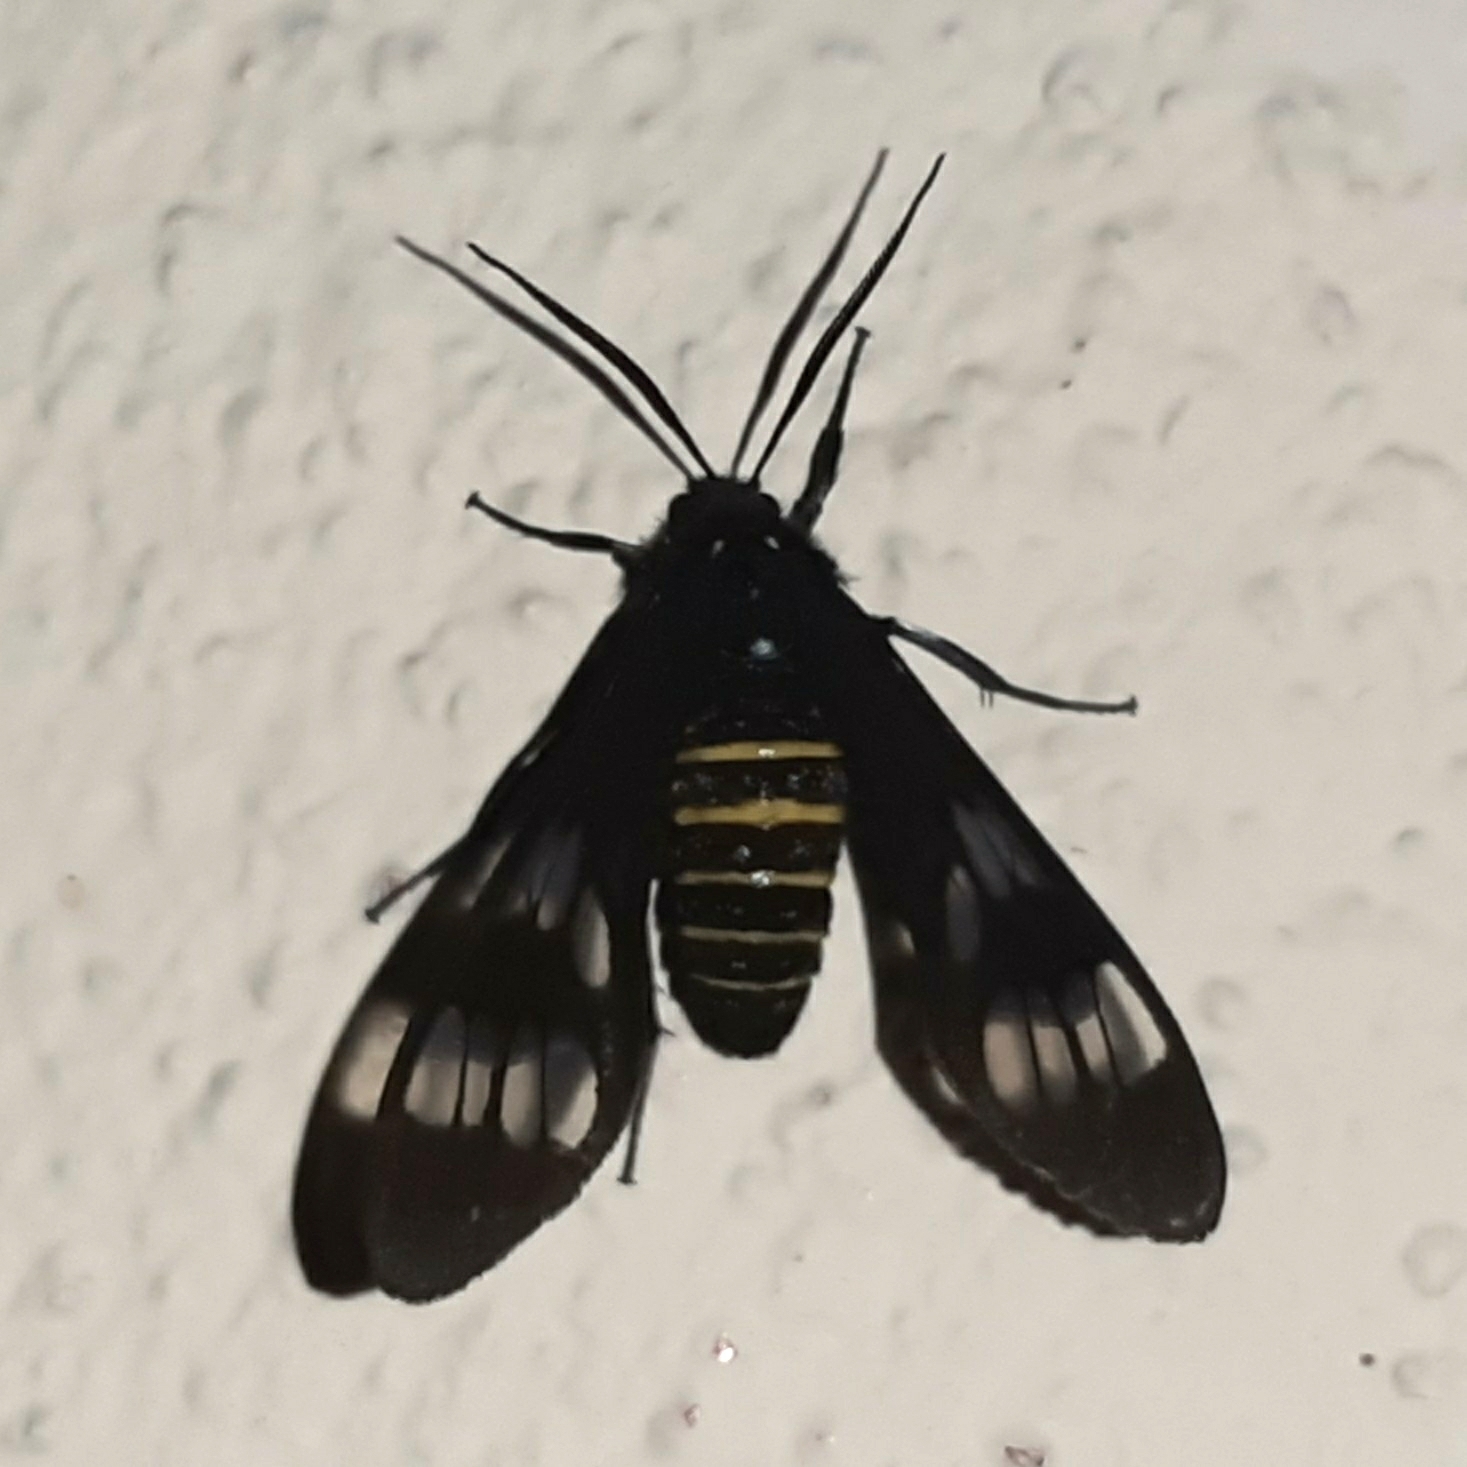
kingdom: Animalia
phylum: Arthropoda
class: Insecta
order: Lepidoptera
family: Erebidae
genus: Phaenarete
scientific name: Phaenarete diana
